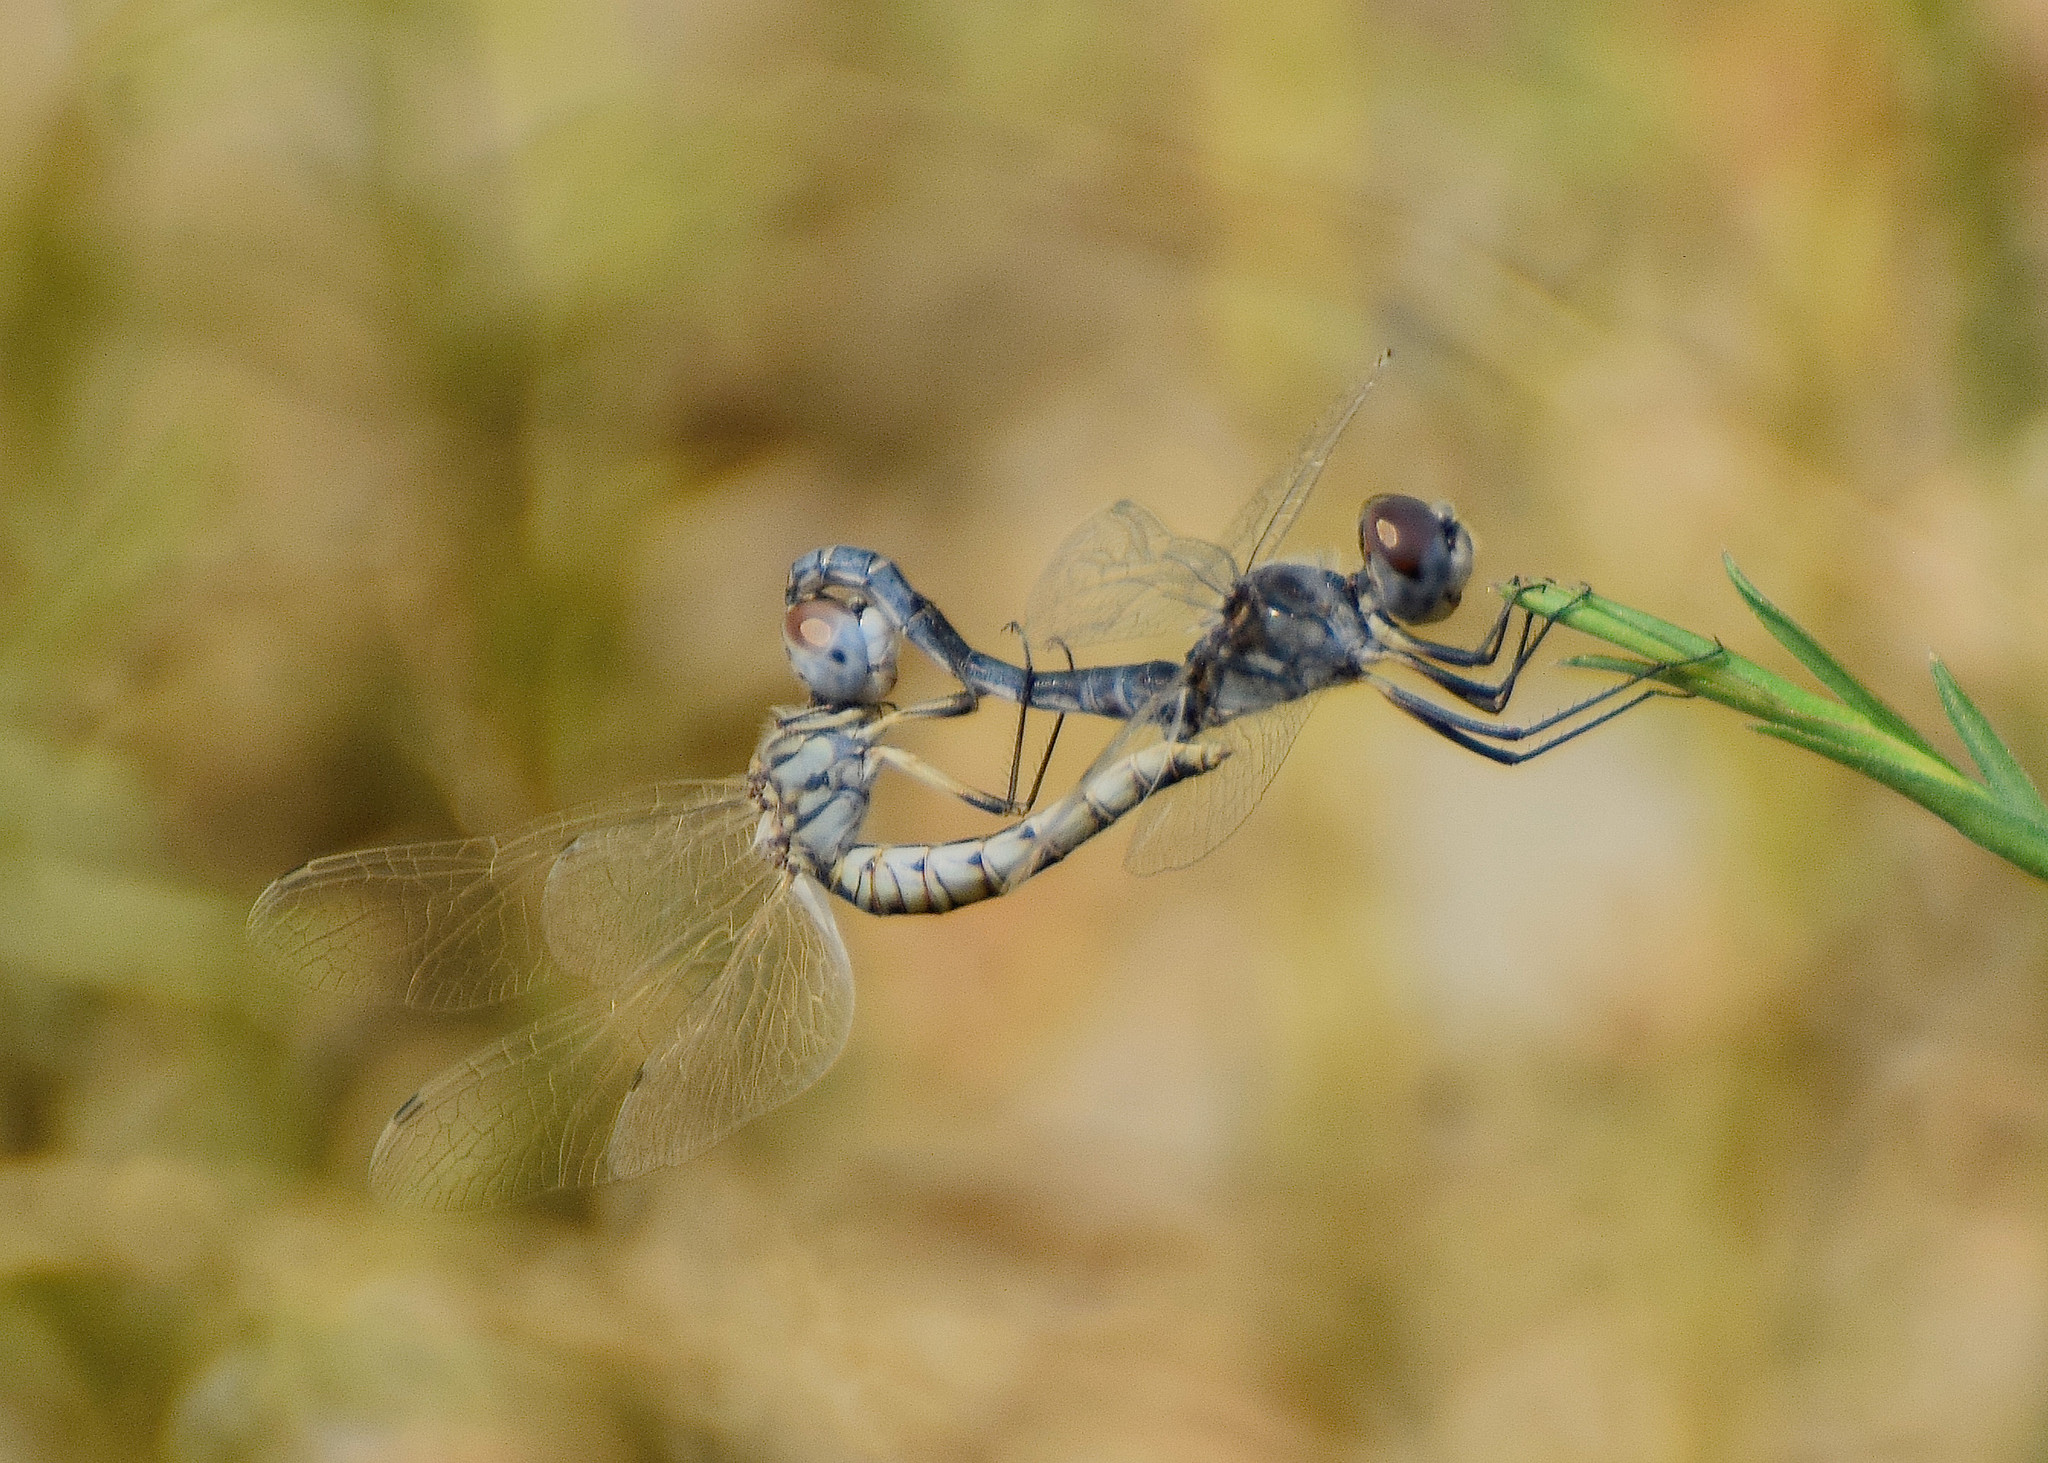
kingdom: Animalia
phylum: Arthropoda
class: Insecta
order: Odonata
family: Libellulidae
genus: Selysiothemis
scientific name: Selysiothemis nigra
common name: Black pennant
